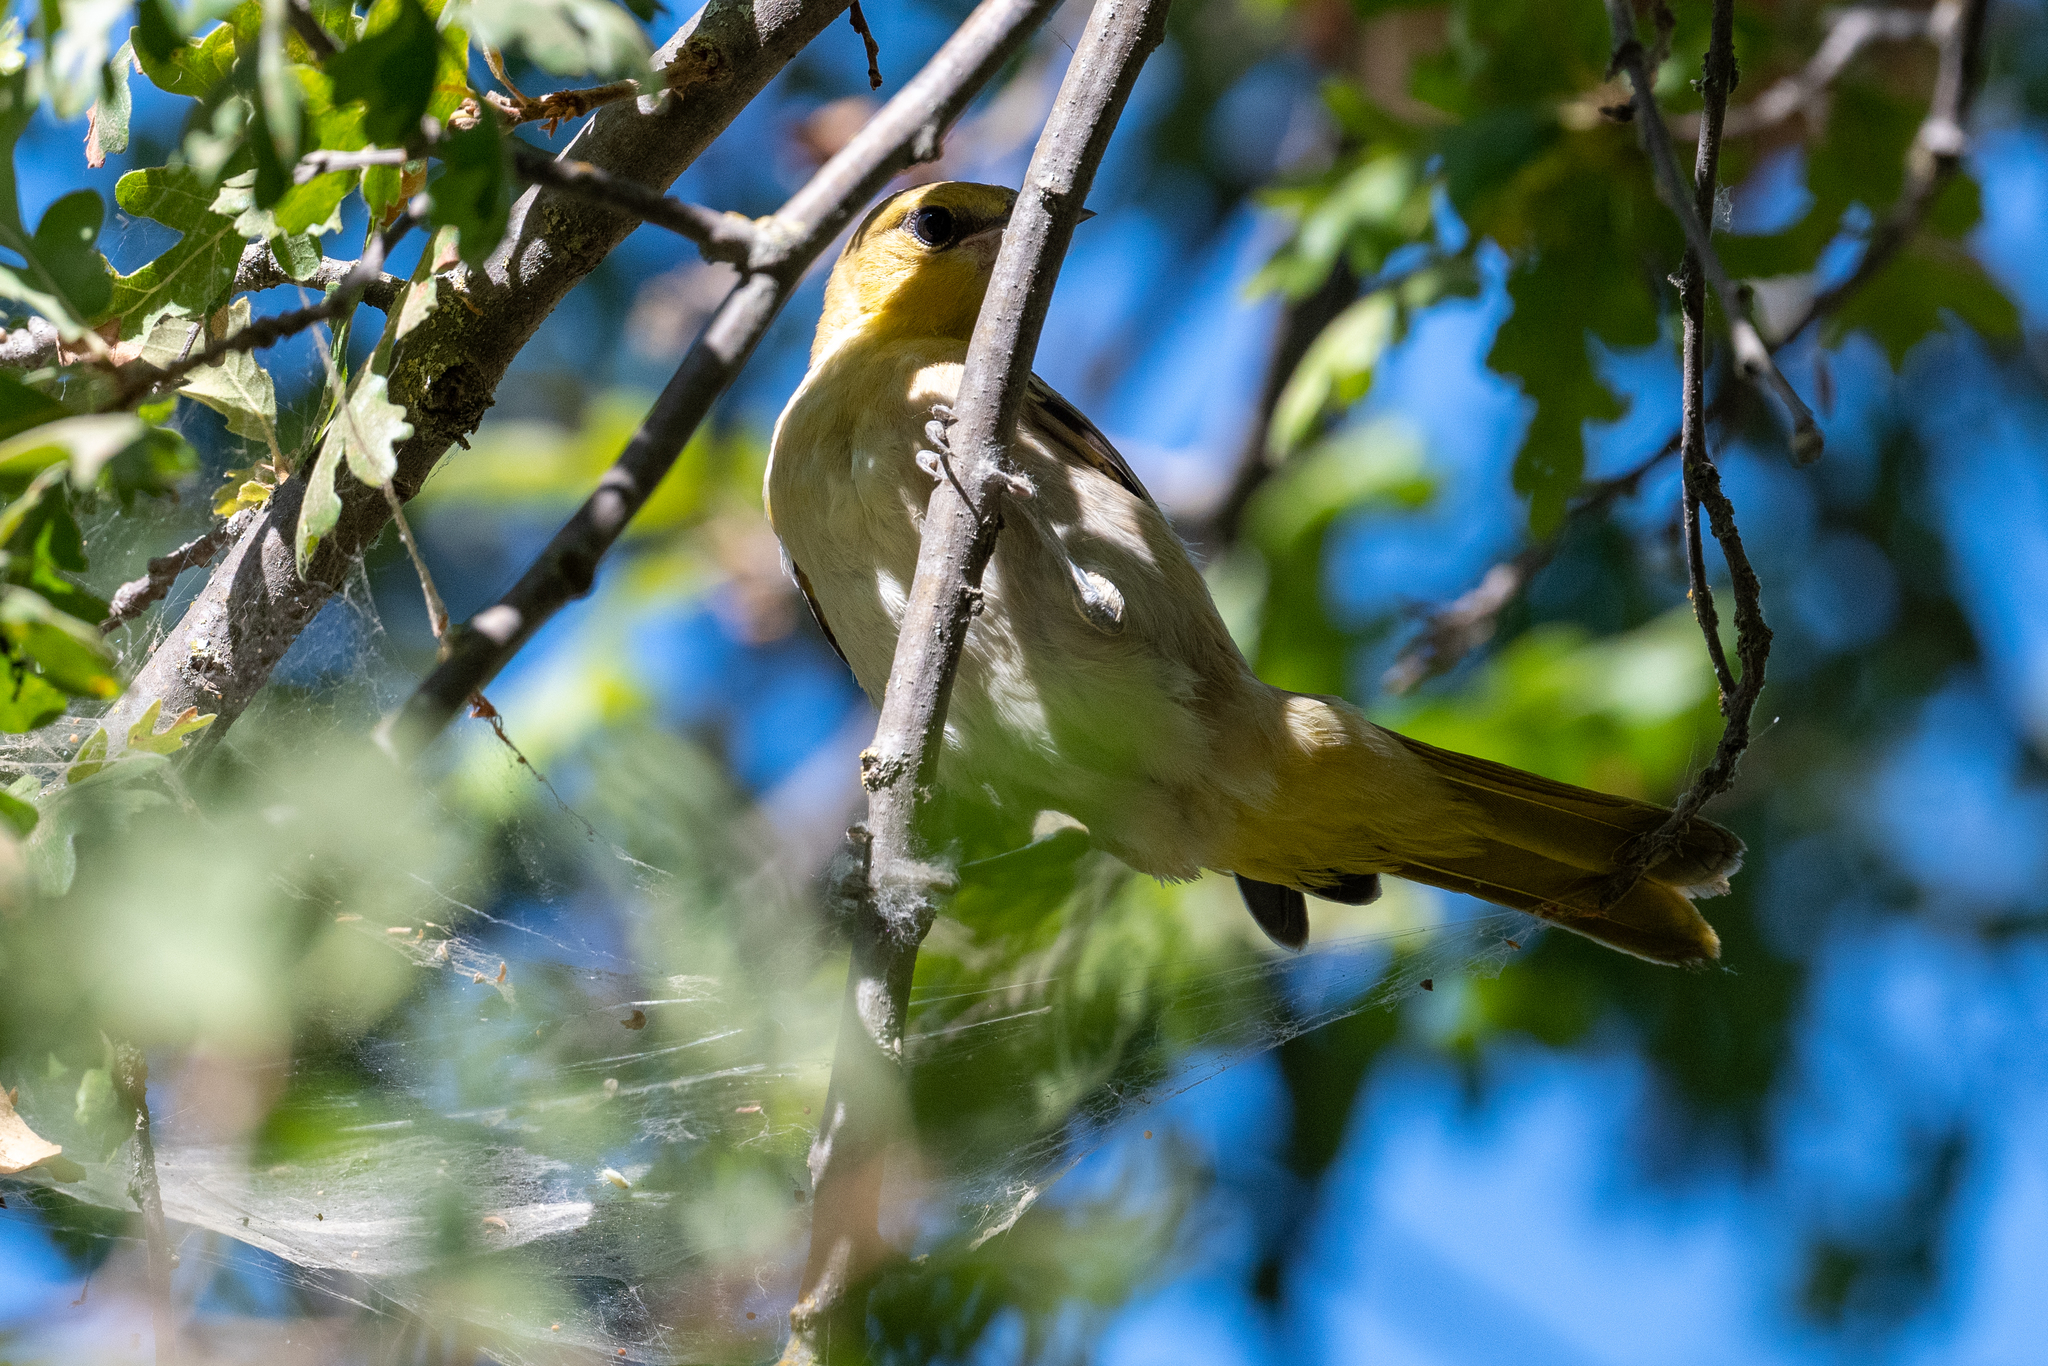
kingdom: Animalia
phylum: Chordata
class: Aves
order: Passeriformes
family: Icteridae
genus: Icterus
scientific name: Icterus bullockii
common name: Bullock's oriole
